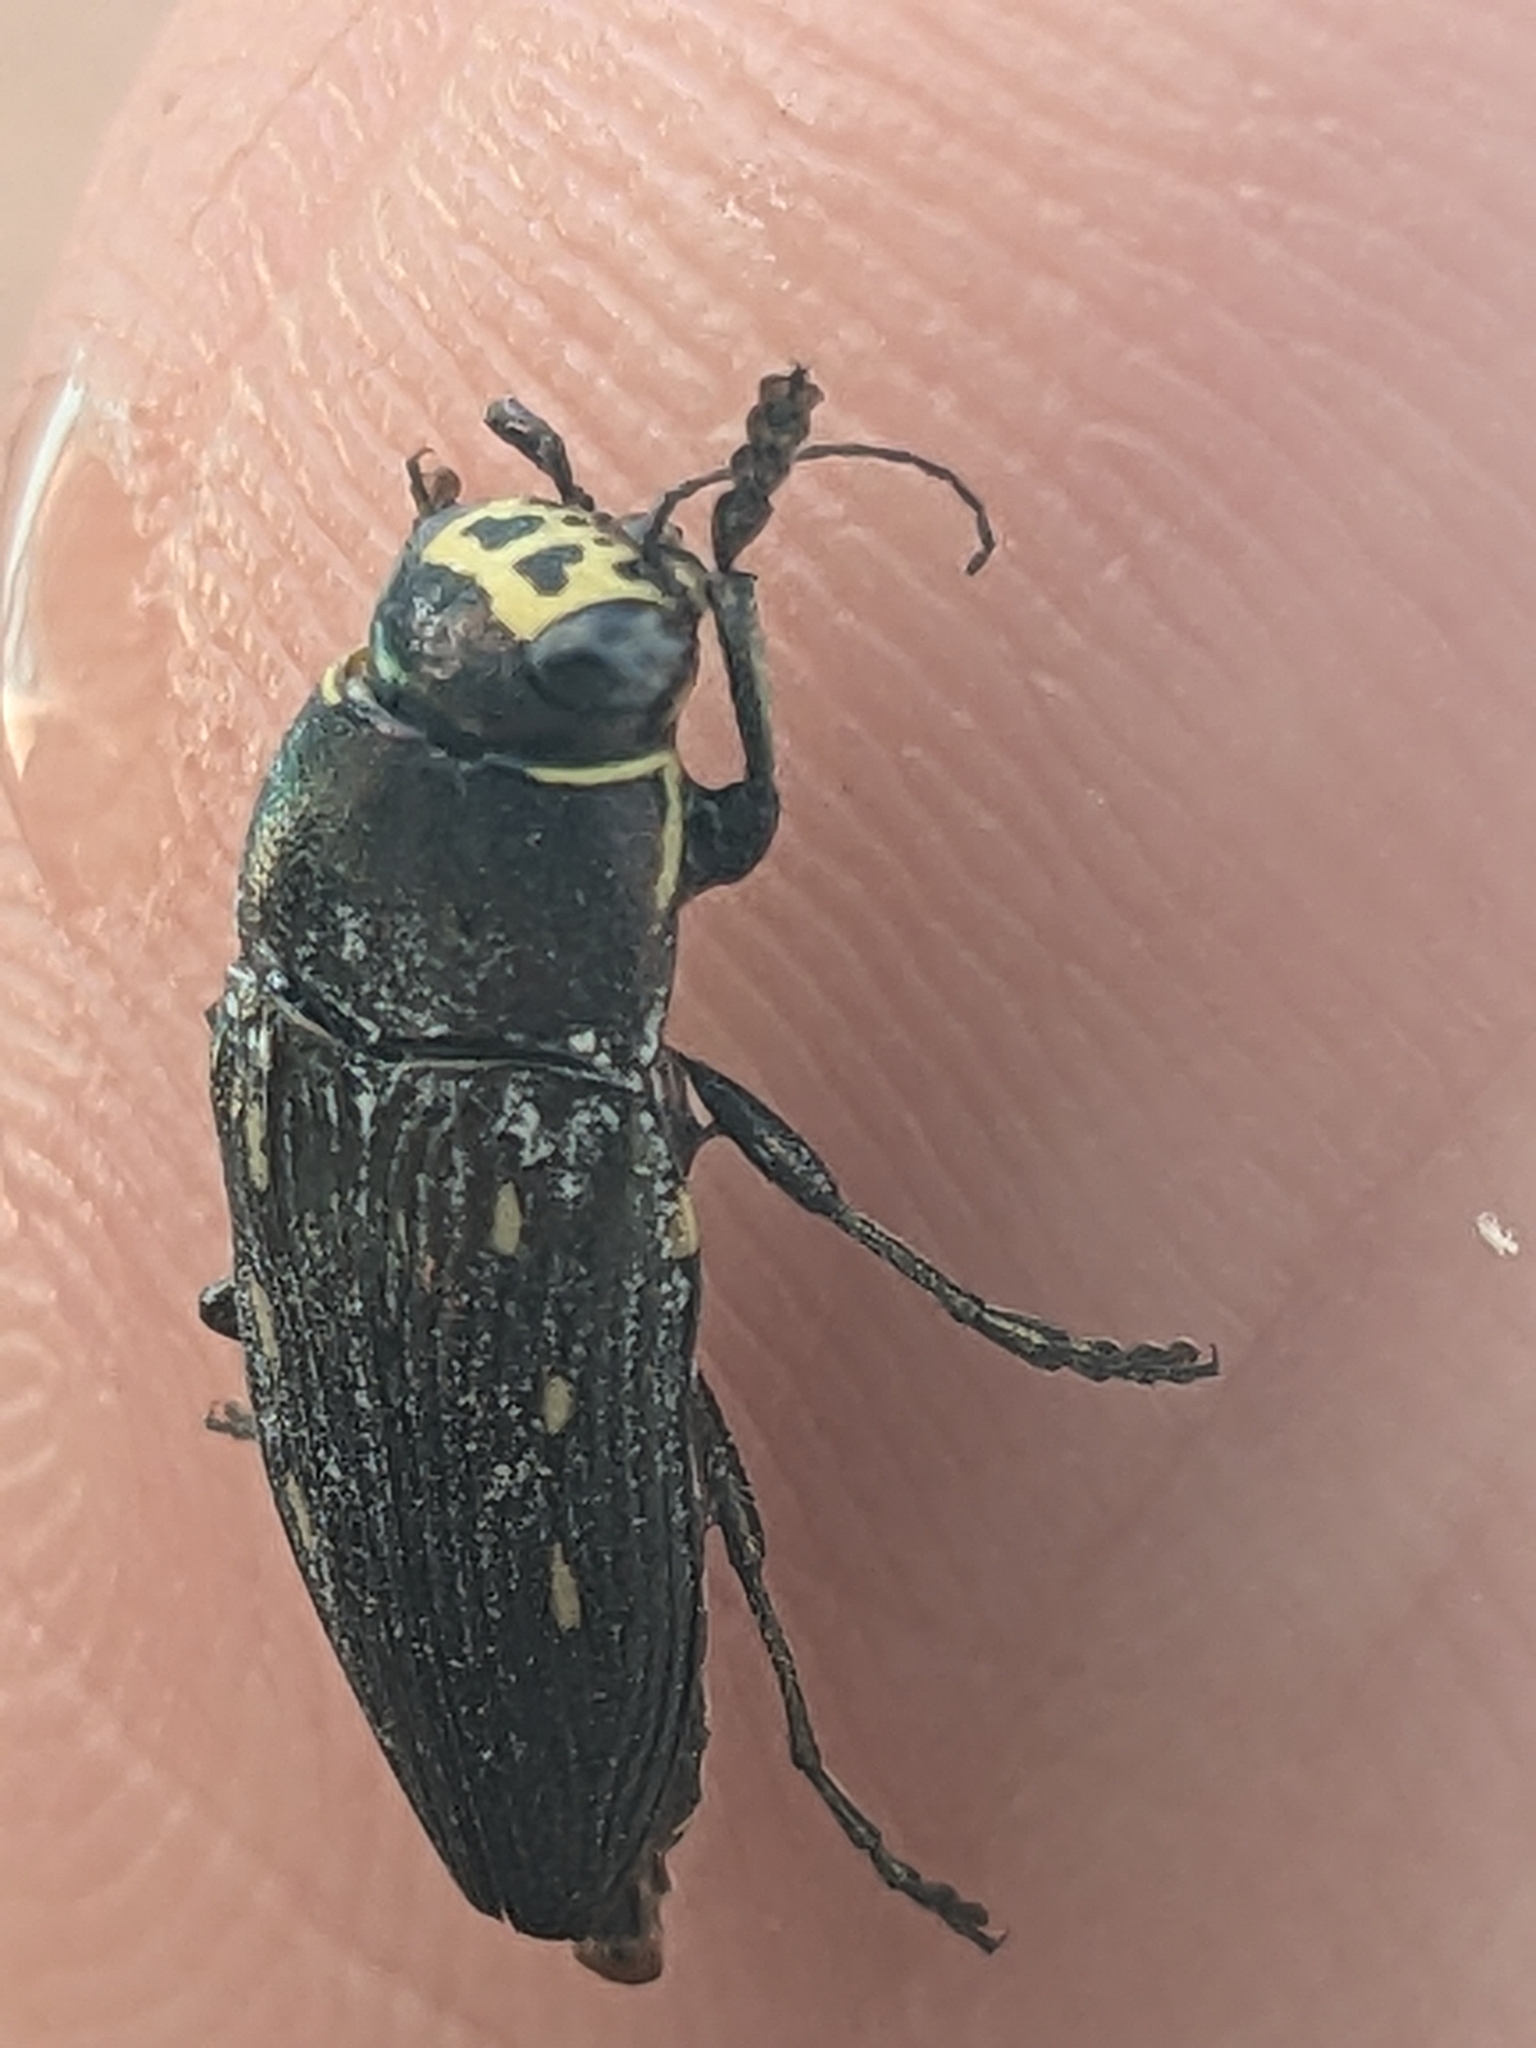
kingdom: Animalia
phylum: Arthropoda
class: Insecta
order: Coleoptera
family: Buprestidae
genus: Buprestis
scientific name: Buprestis dalmatina
